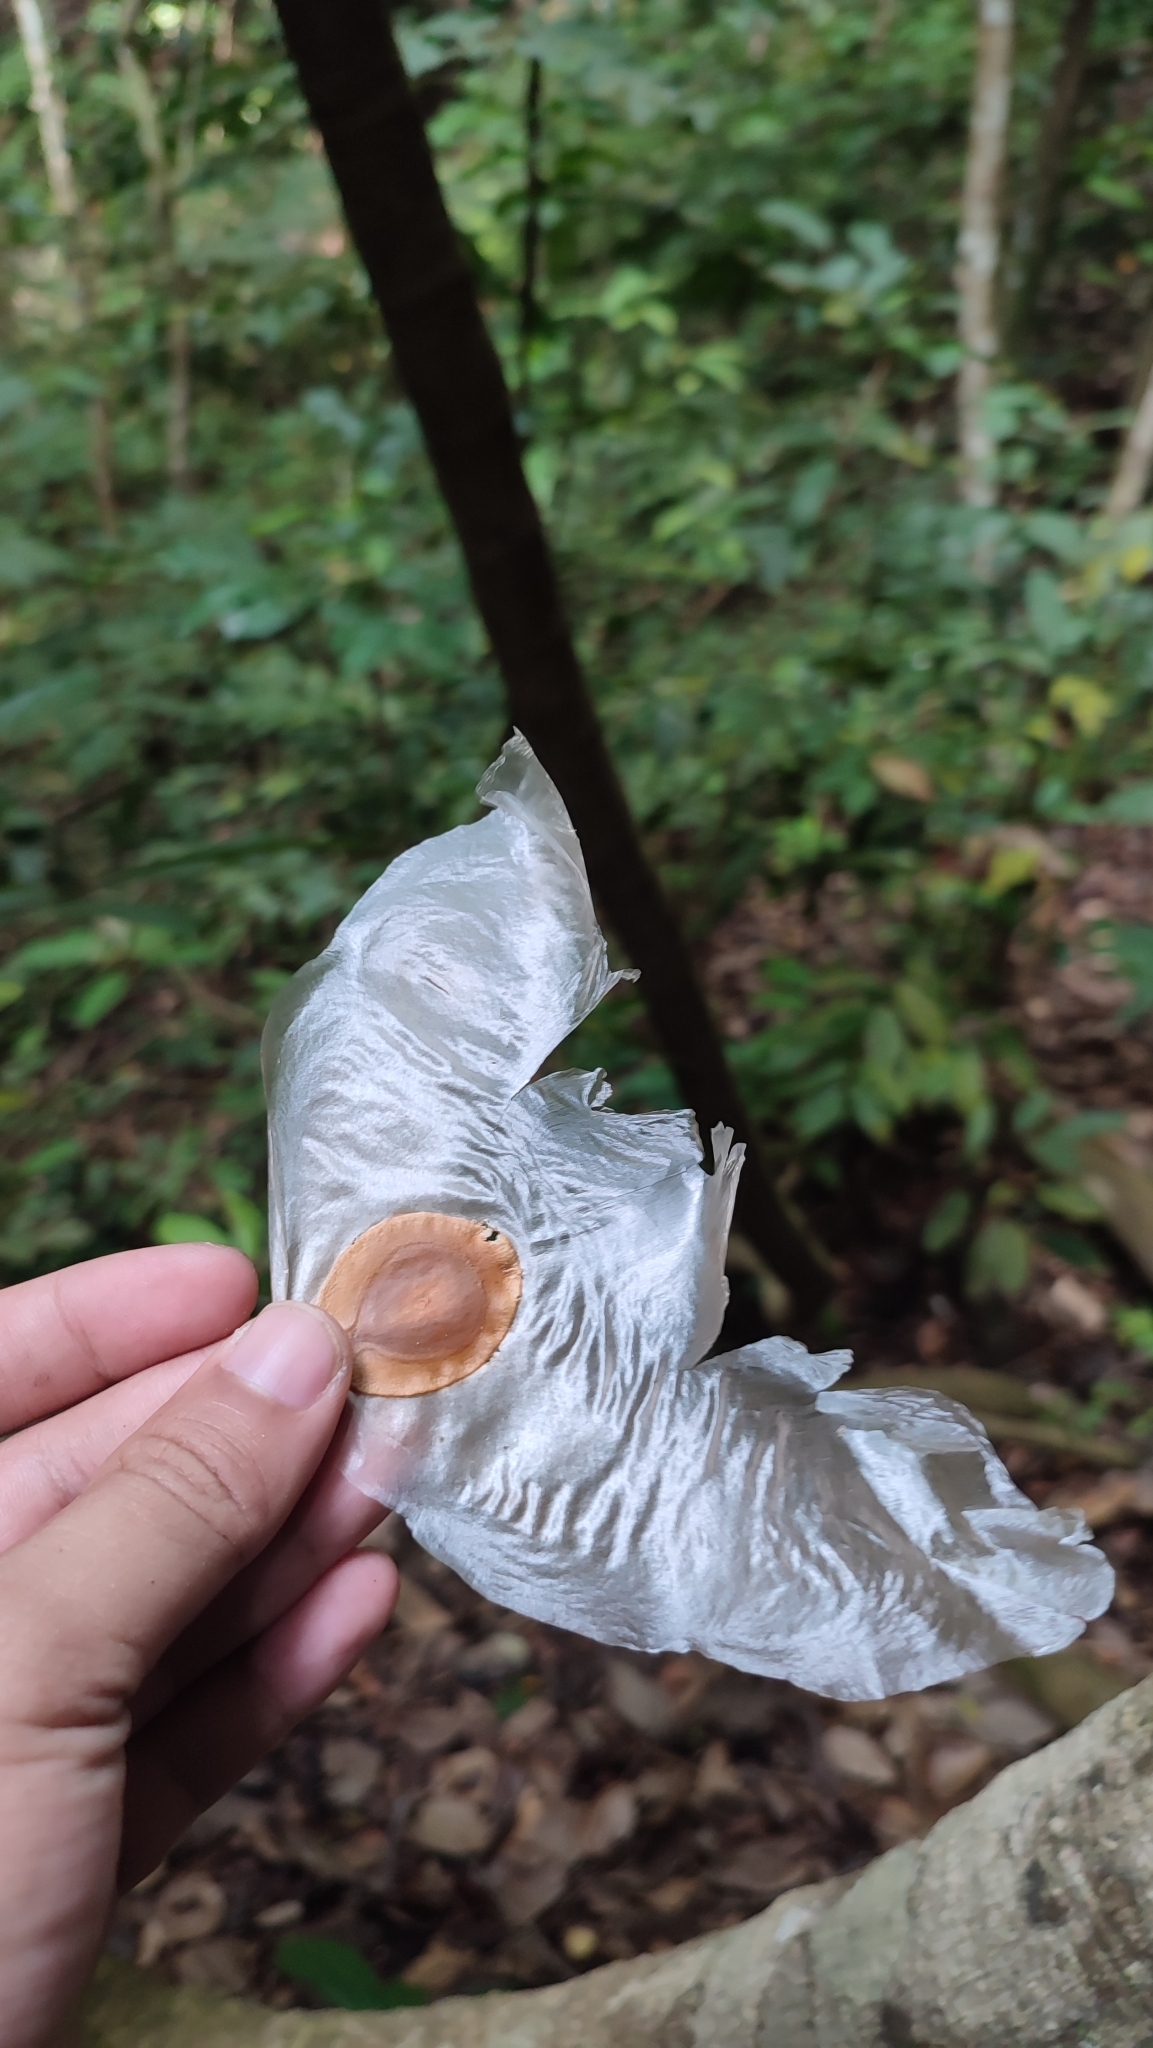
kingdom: Plantae
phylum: Tracheophyta
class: Magnoliopsida
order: Cucurbitales
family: Cucurbitaceae
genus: Alsomitra
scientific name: Alsomitra macrocarpa
